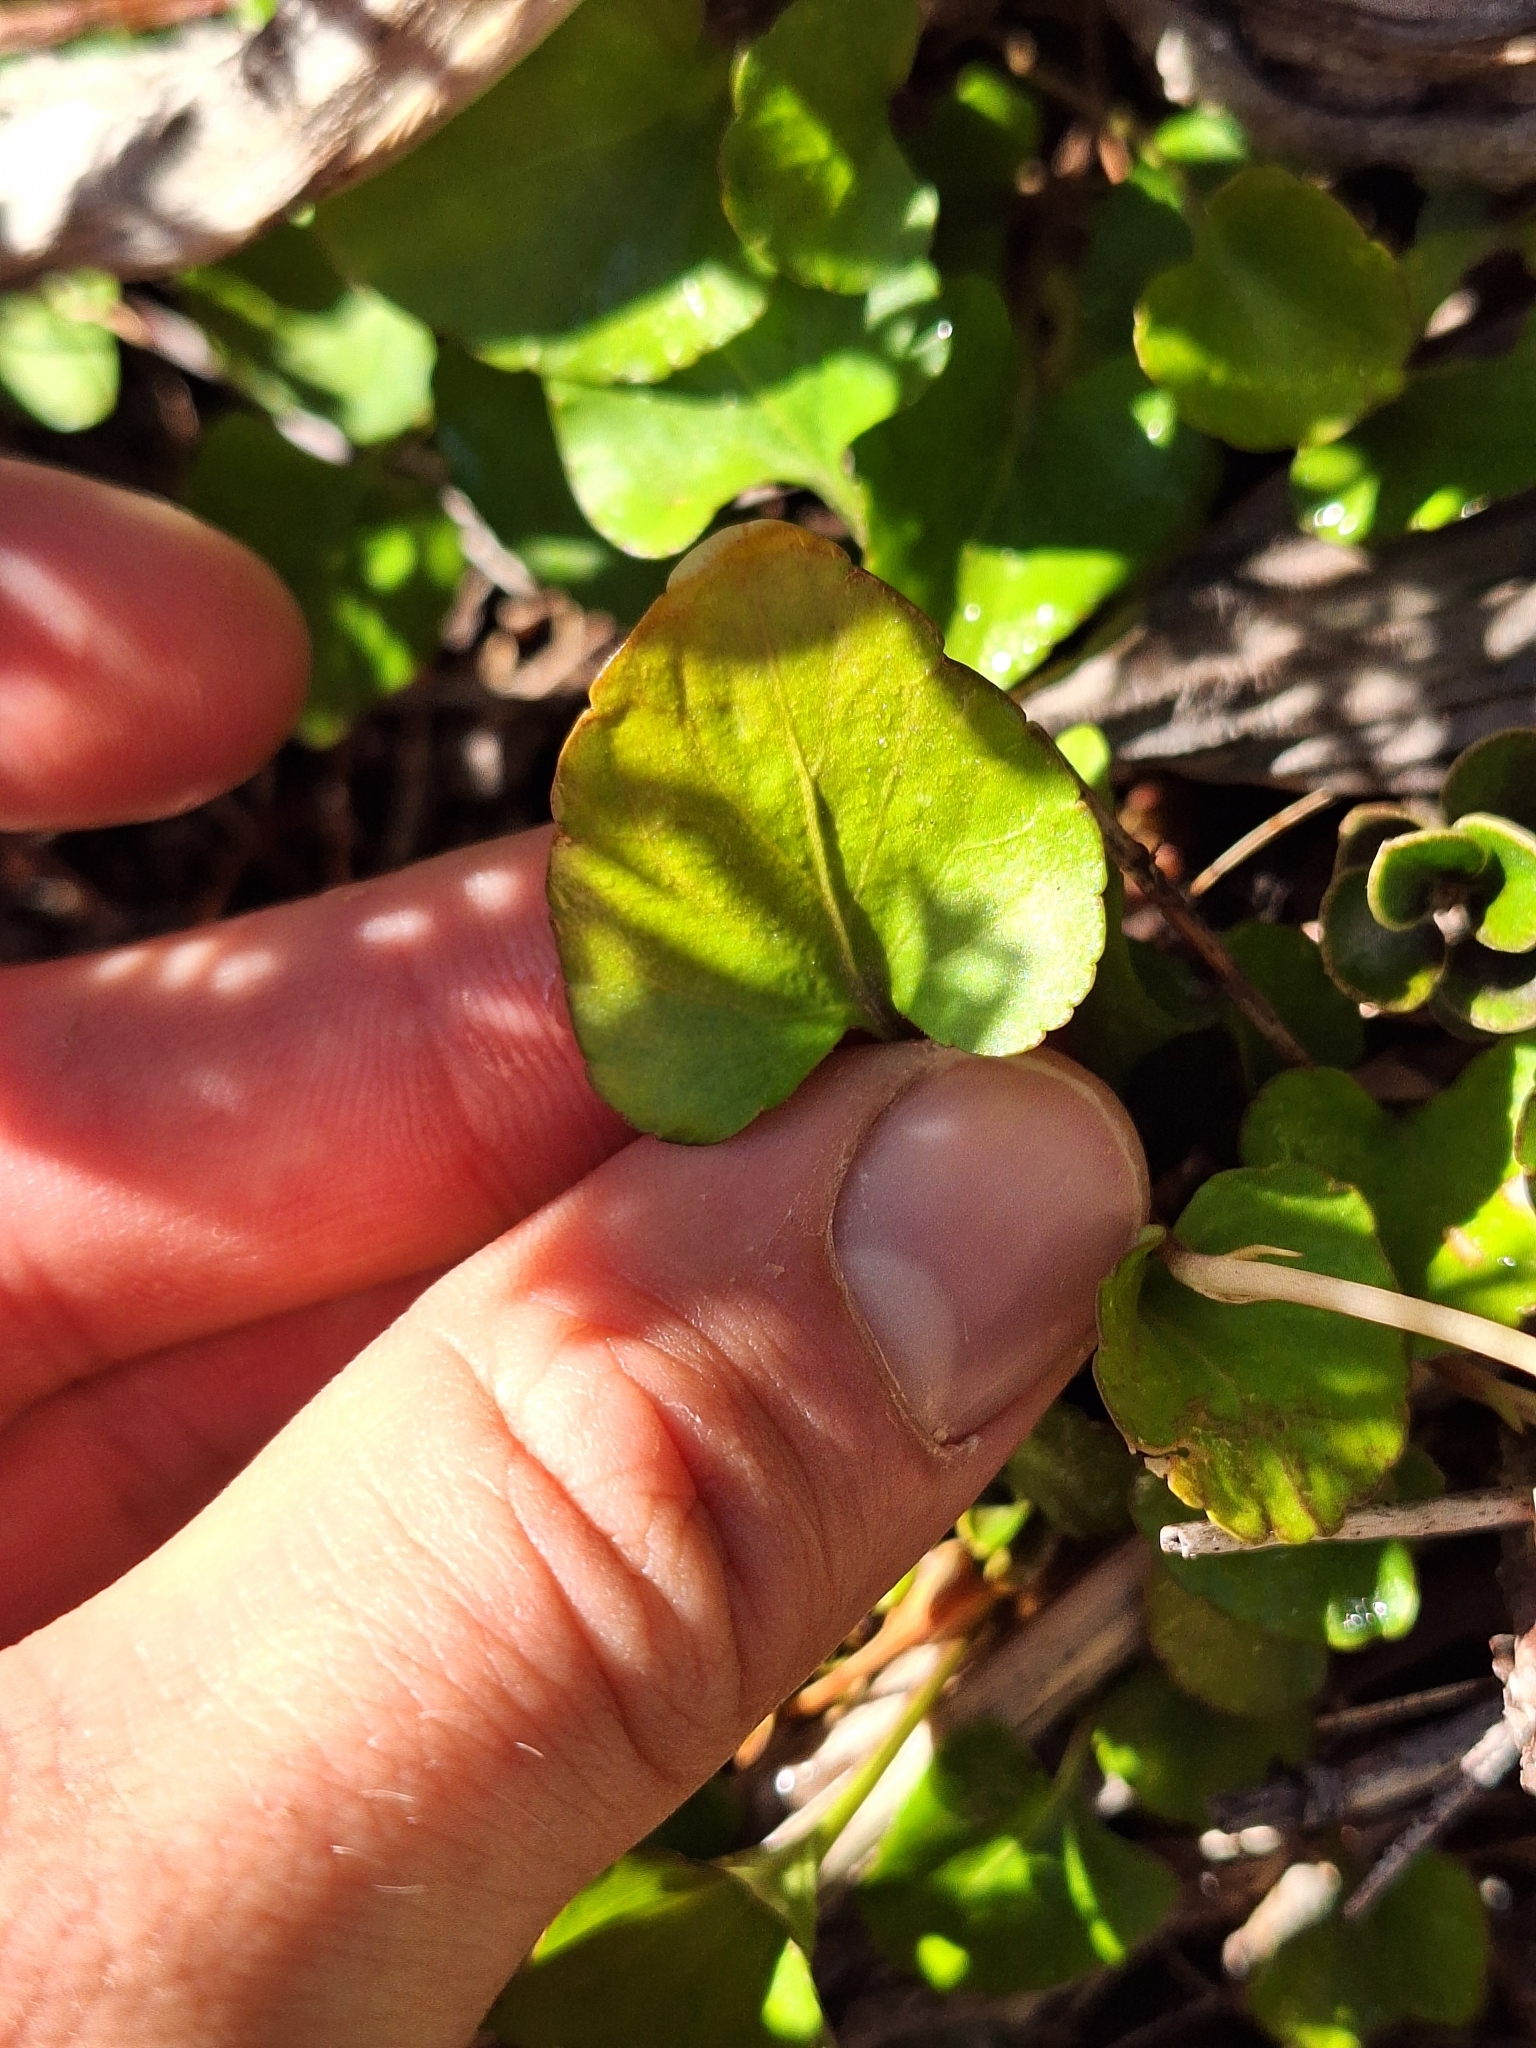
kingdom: Plantae
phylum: Tracheophyta
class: Magnoliopsida
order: Malpighiales
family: Violaceae
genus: Viola
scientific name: Viola cunninghamii
